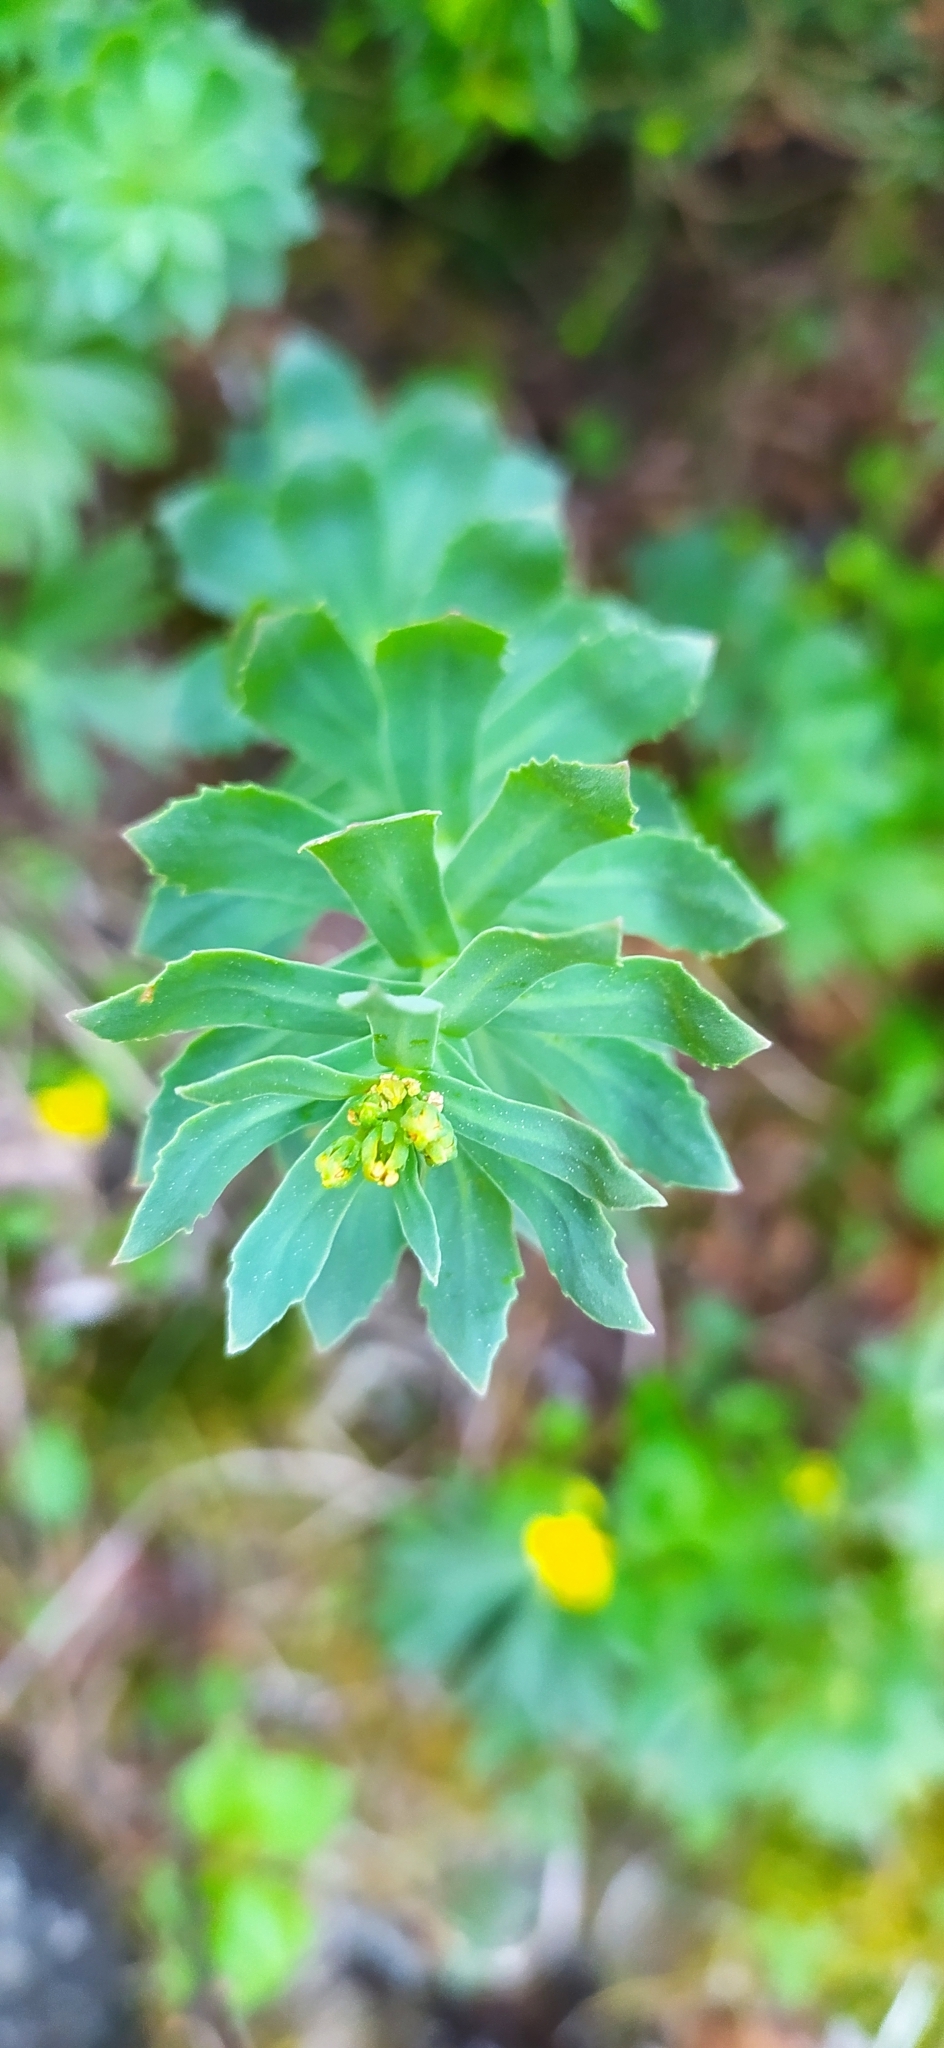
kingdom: Plantae
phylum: Tracheophyta
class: Magnoliopsida
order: Saxifragales
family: Crassulaceae
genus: Rhodiola
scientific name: Rhodiola rosea
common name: Roseroot
